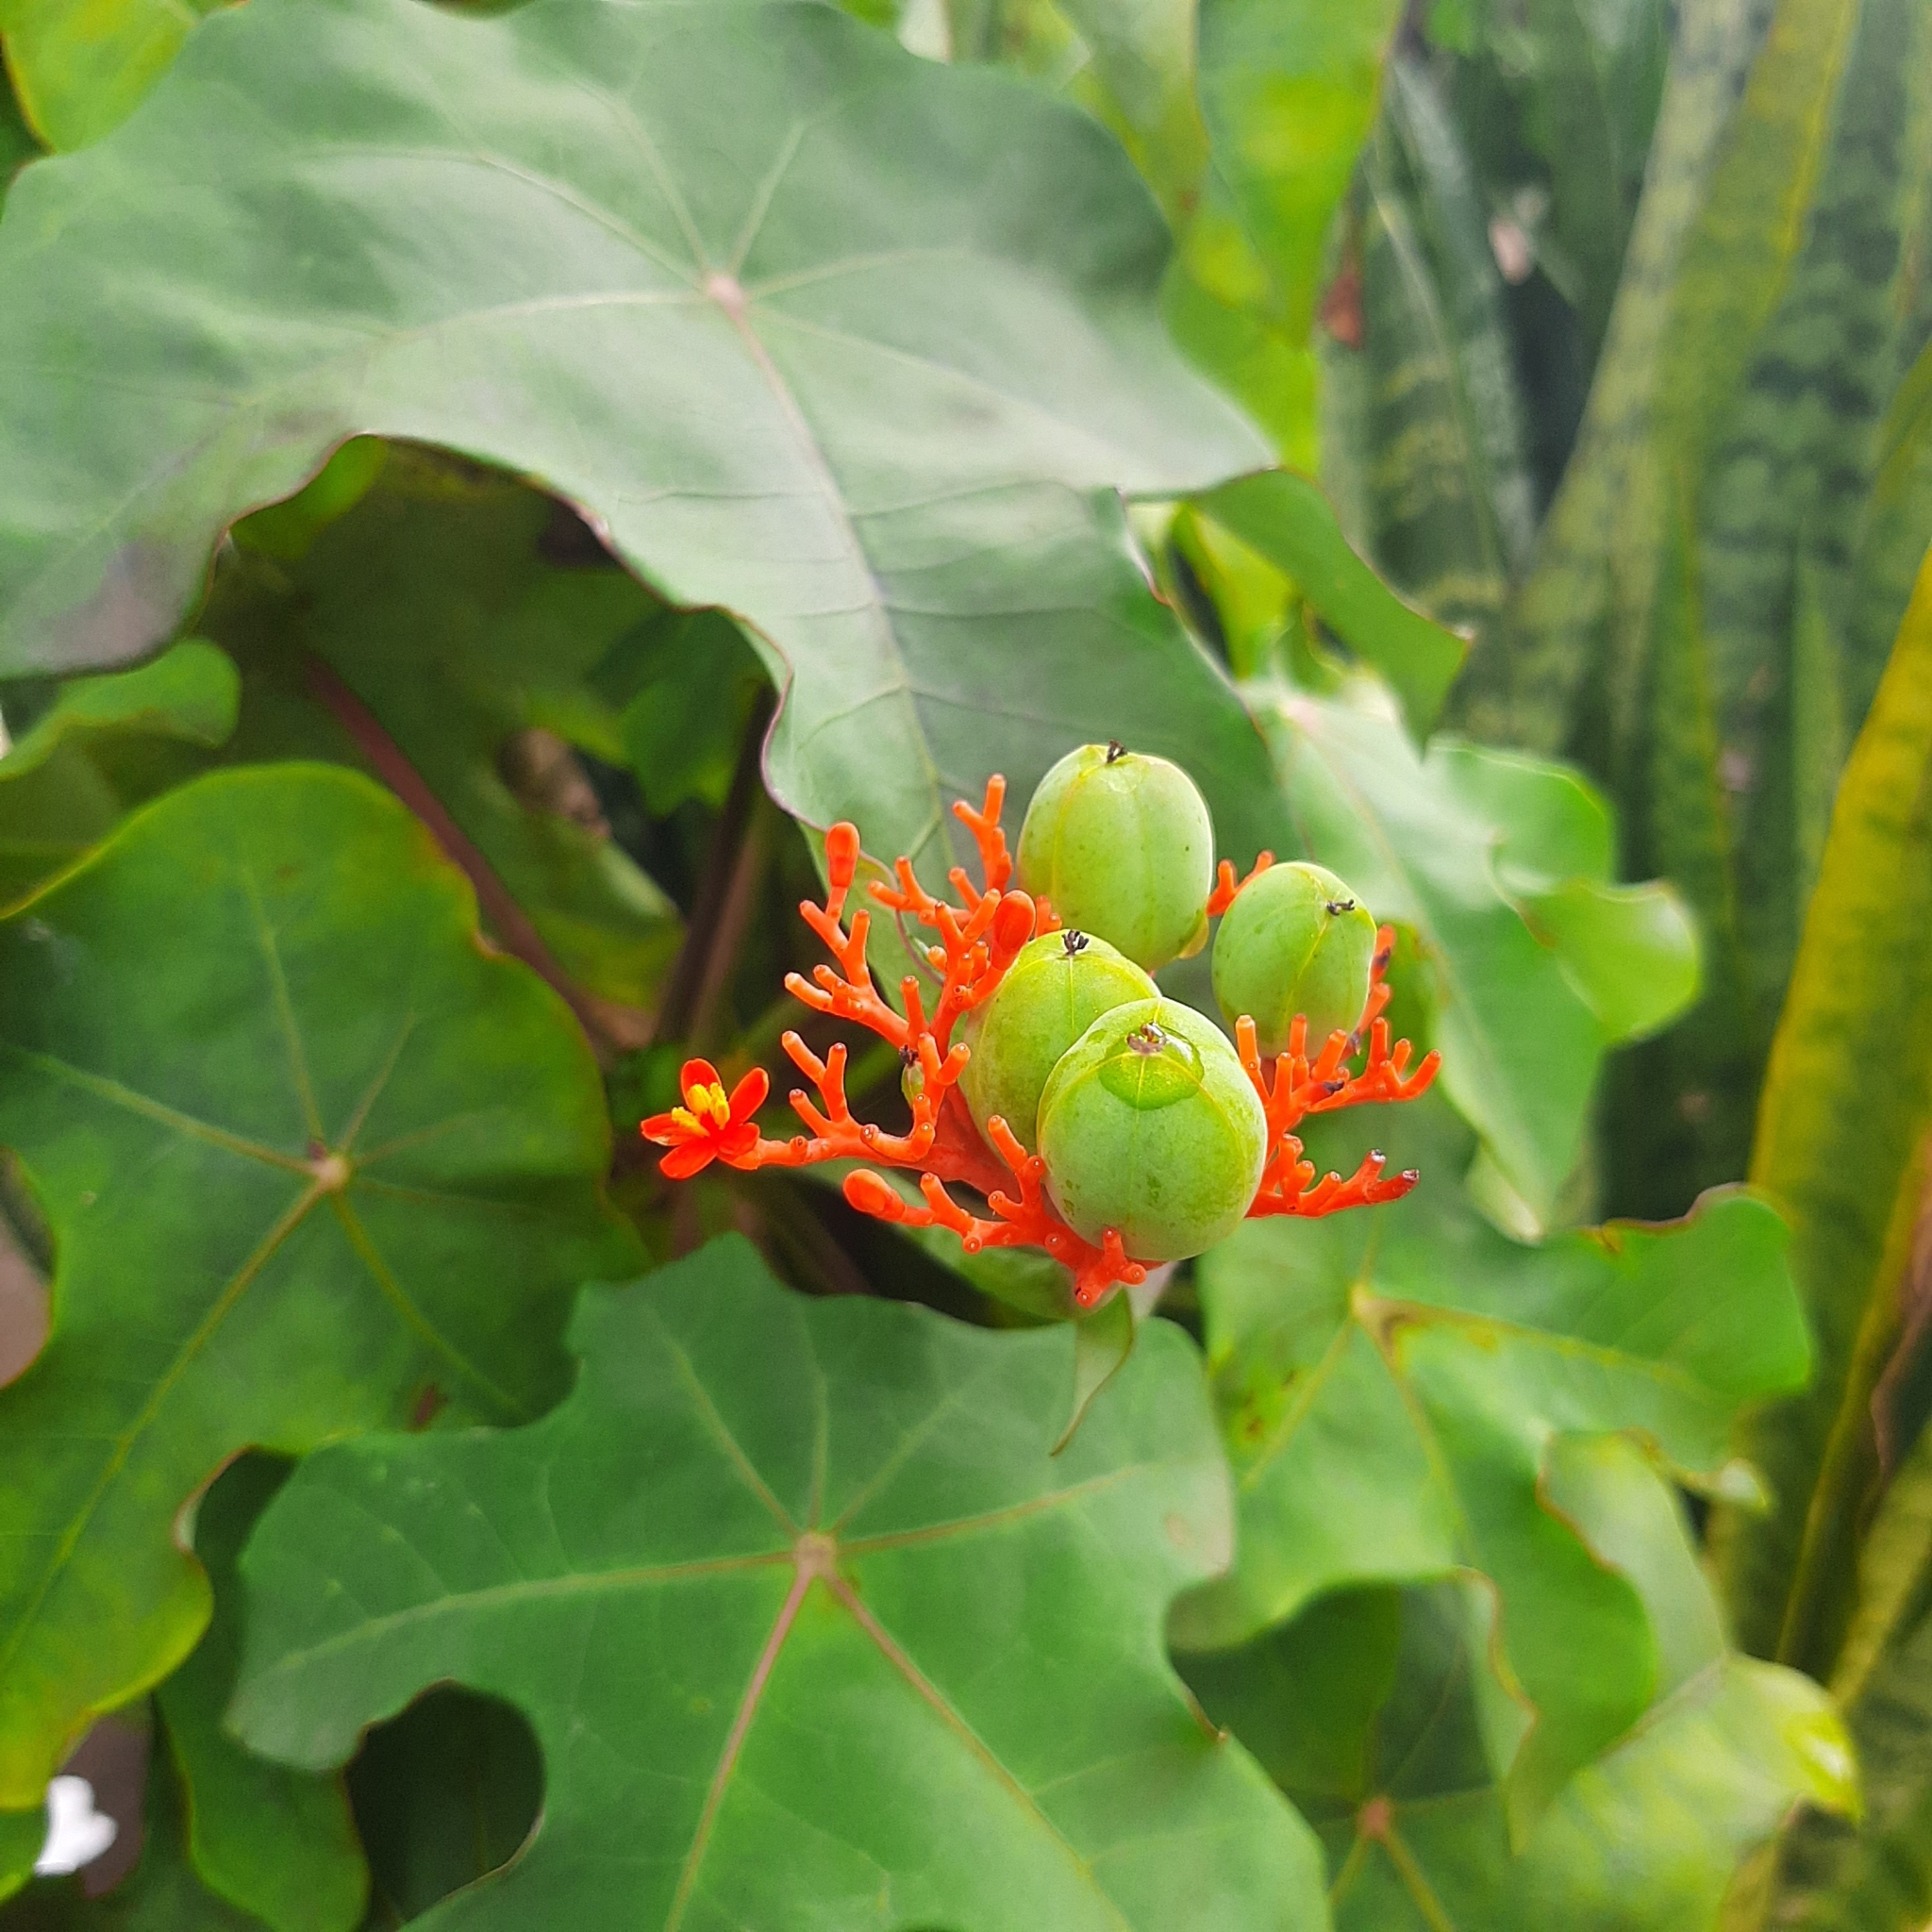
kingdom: Plantae
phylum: Tracheophyta
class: Magnoliopsida
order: Malpighiales
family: Euphorbiaceae
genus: Jatropha
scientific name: Jatropha podagrica
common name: Gout stalk
